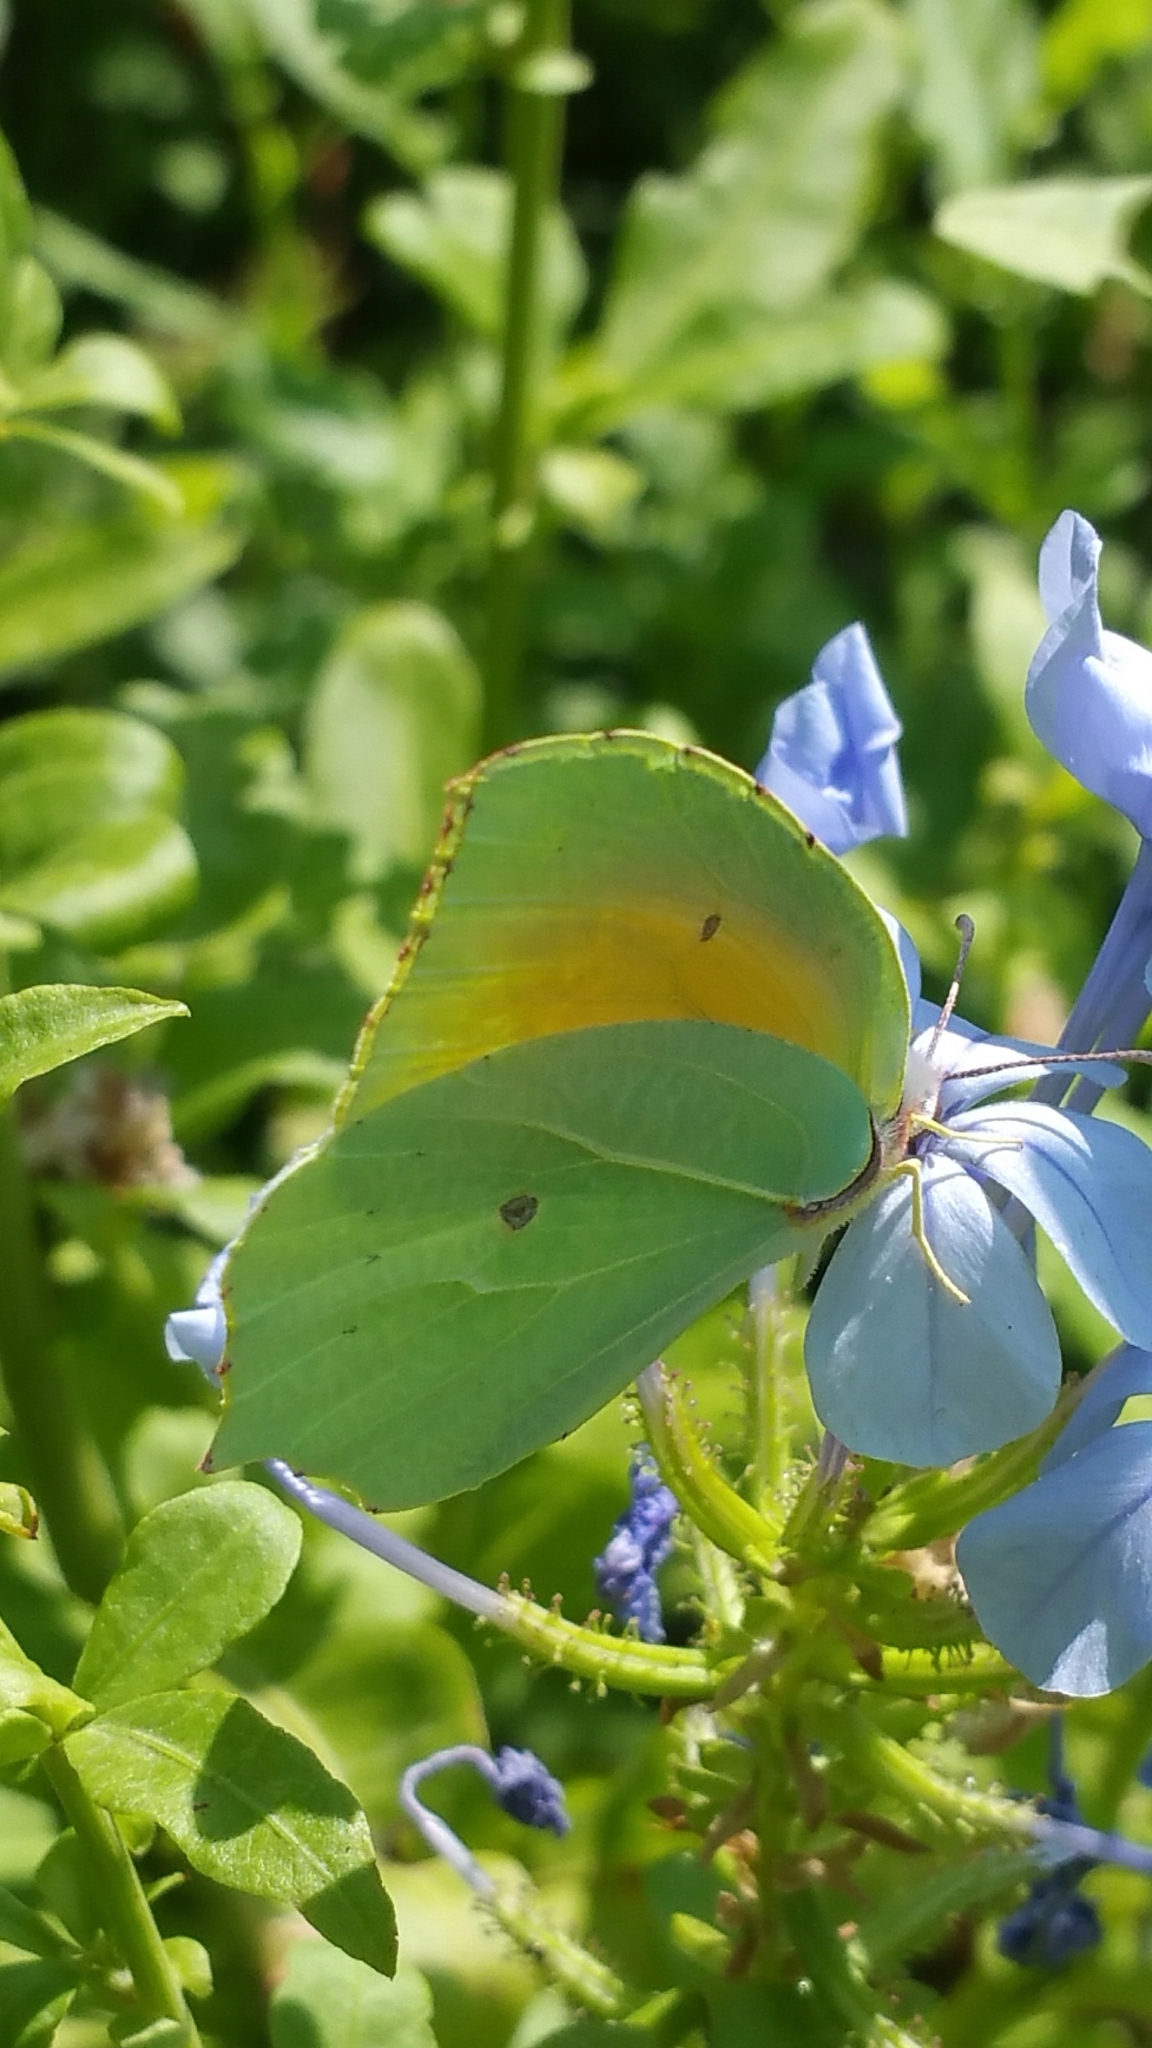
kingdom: Animalia
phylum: Arthropoda
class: Insecta
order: Lepidoptera
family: Pieridae
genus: Gonepteryx
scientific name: Gonepteryx cleopatra
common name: Cleopatra
